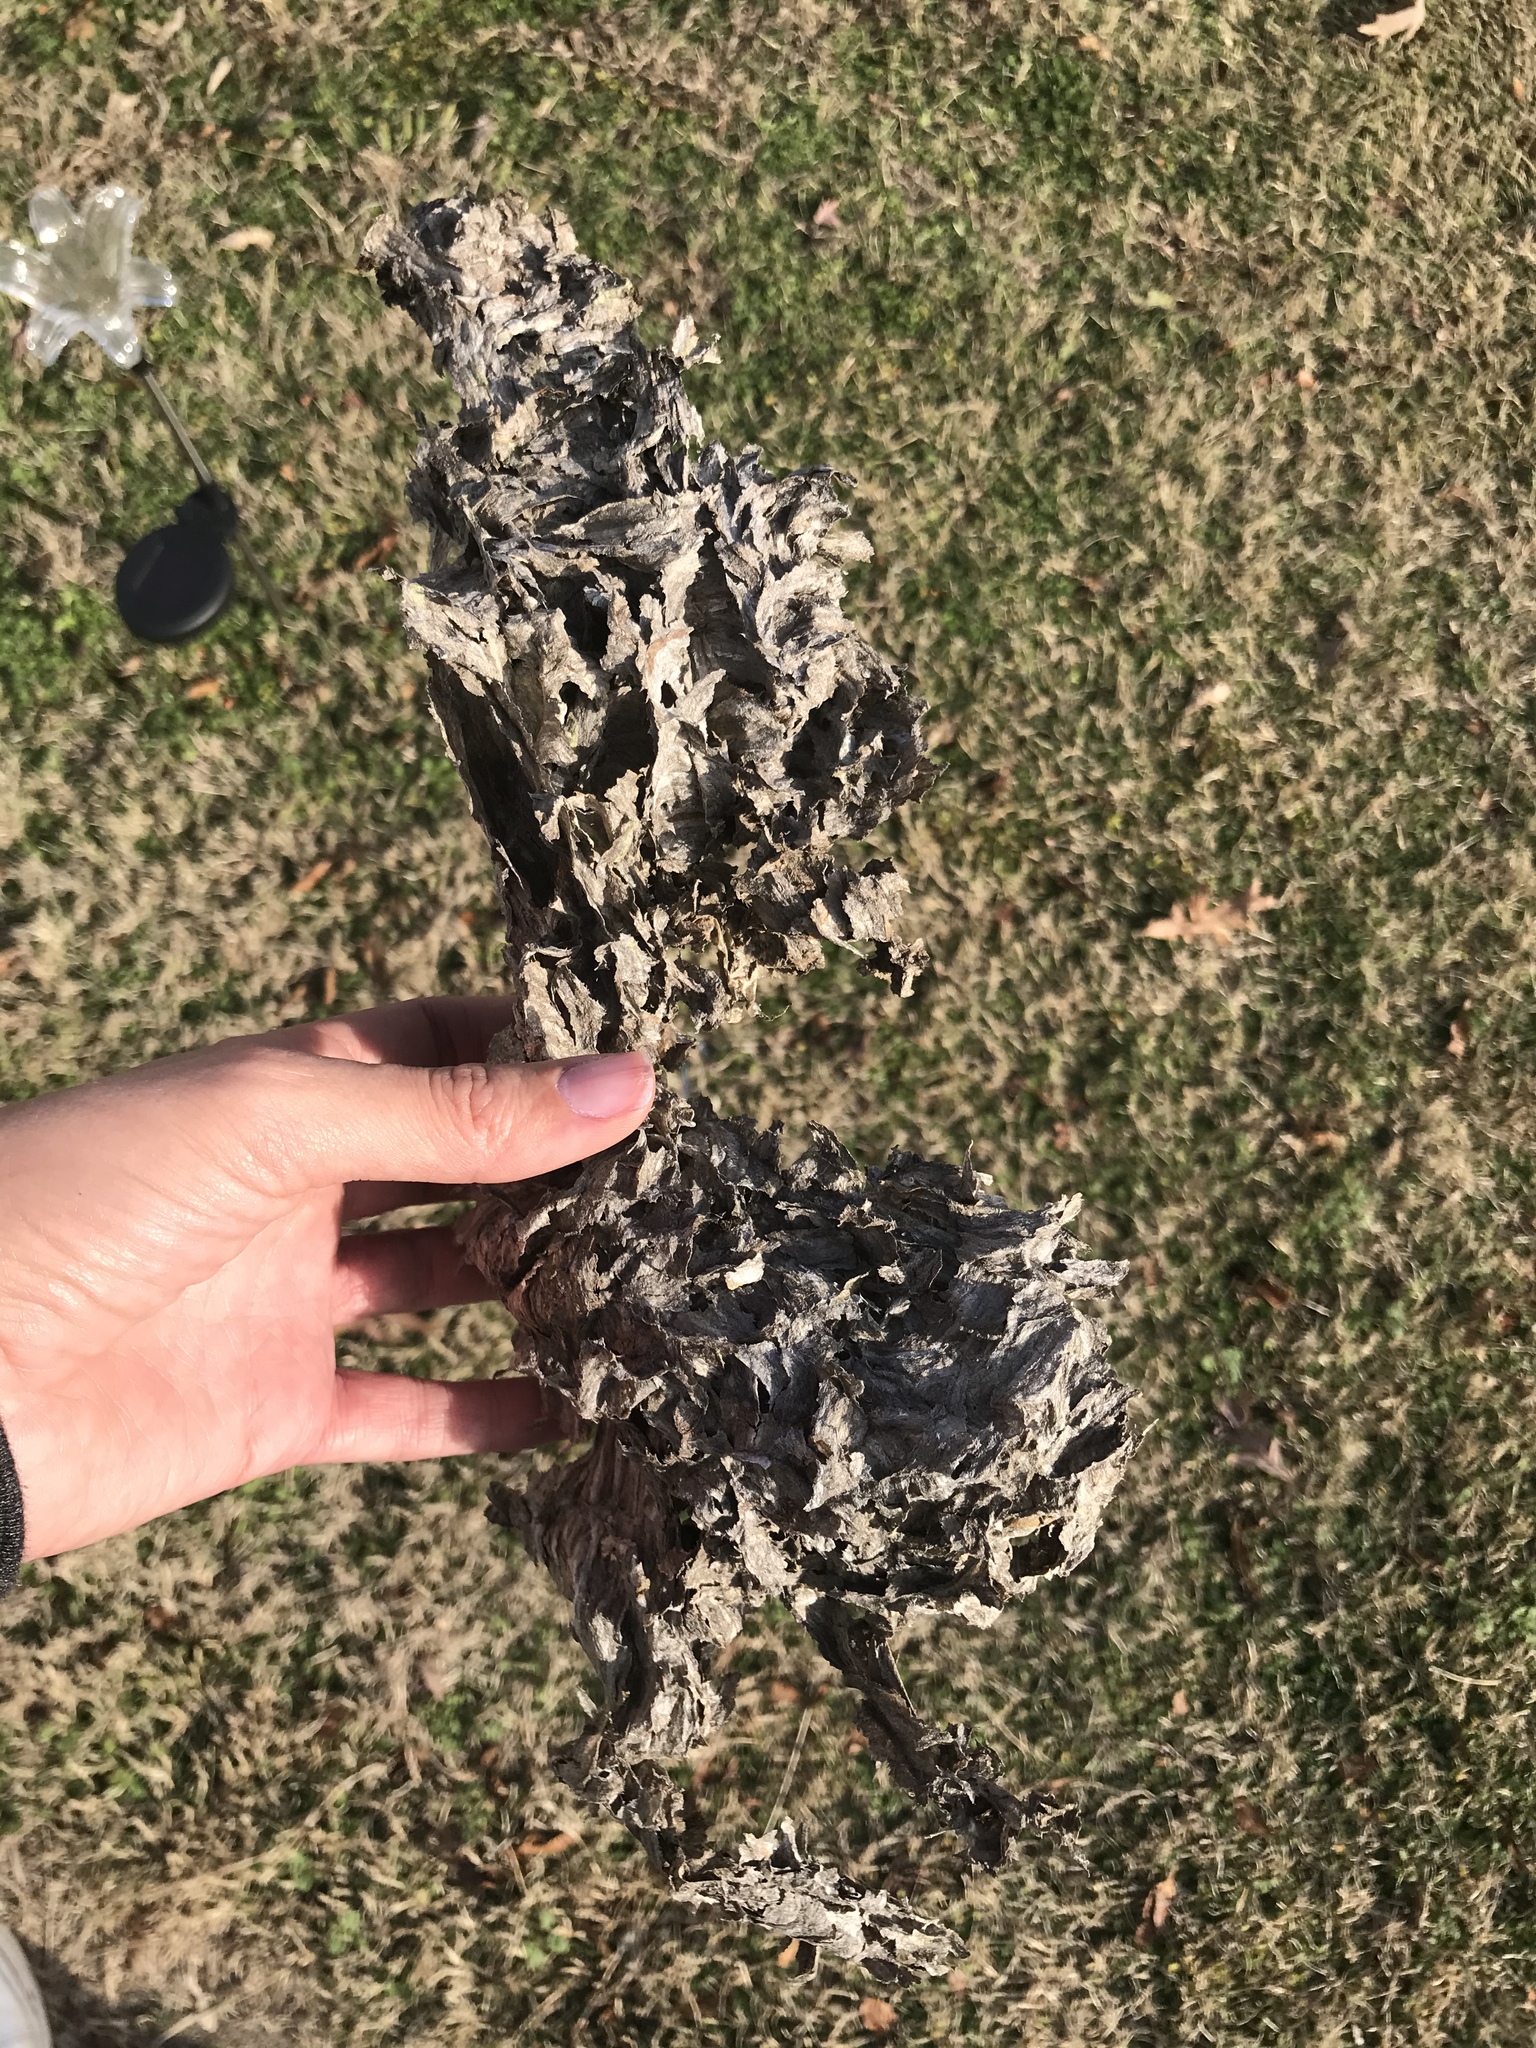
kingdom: Animalia
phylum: Arthropoda
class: Insecta
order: Hymenoptera
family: Vespidae
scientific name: Vespidae
